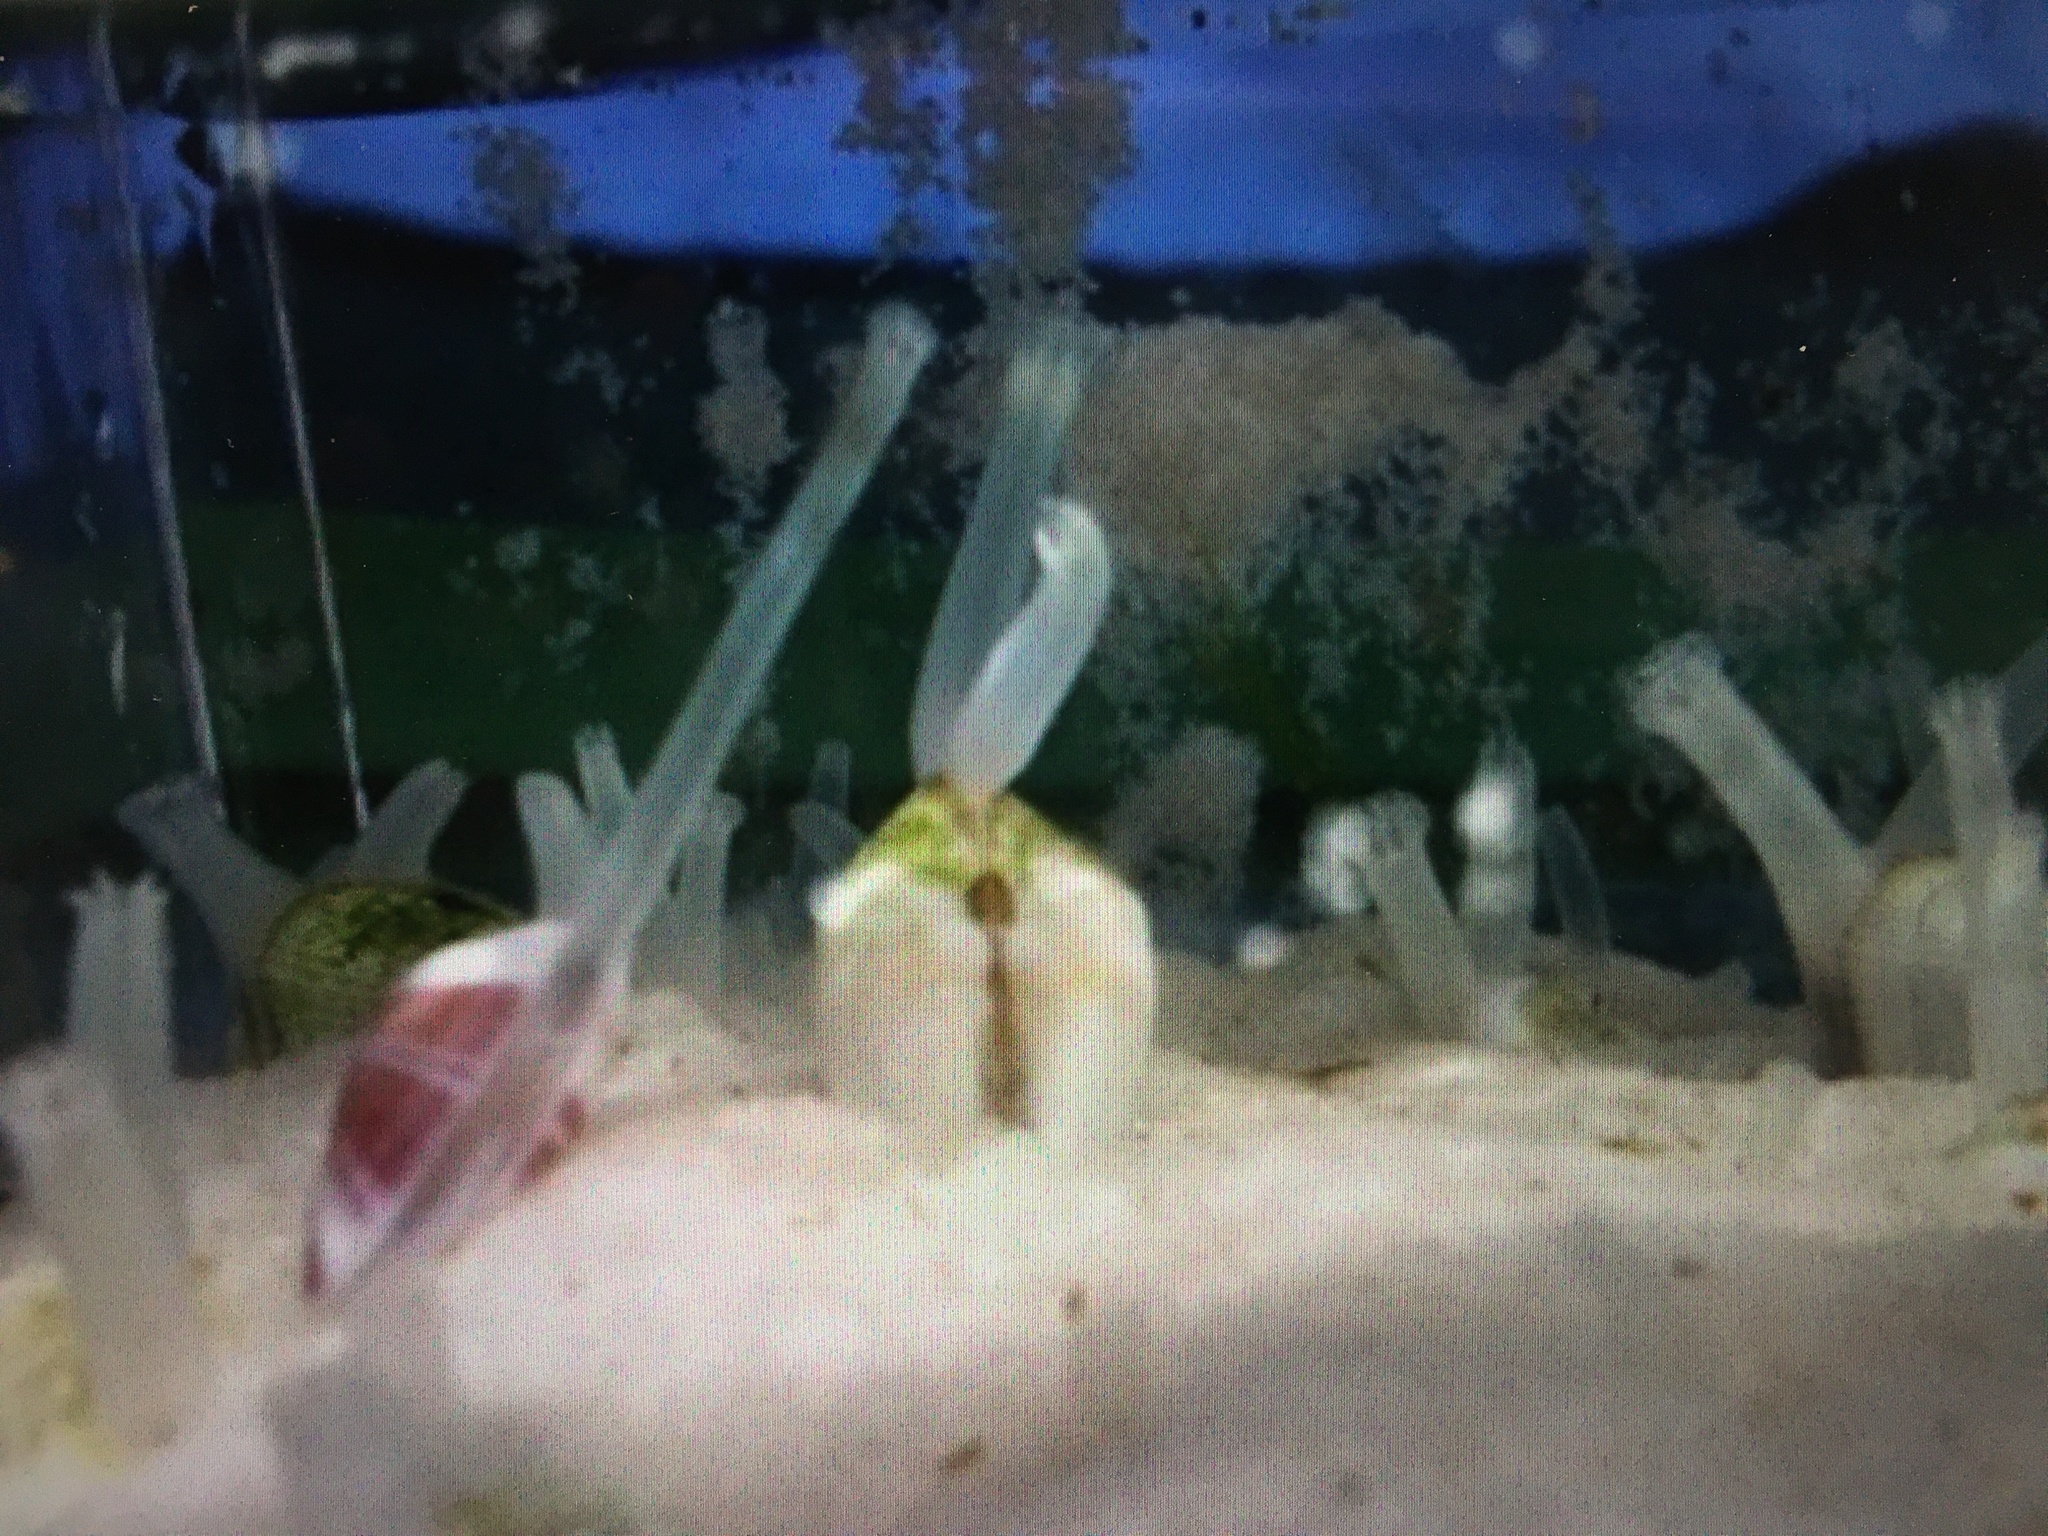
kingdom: Animalia
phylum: Mollusca
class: Bivalvia
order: Cardiida
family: Donacidae
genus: Donax
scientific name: Donax variabilis
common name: Butterfly shell
